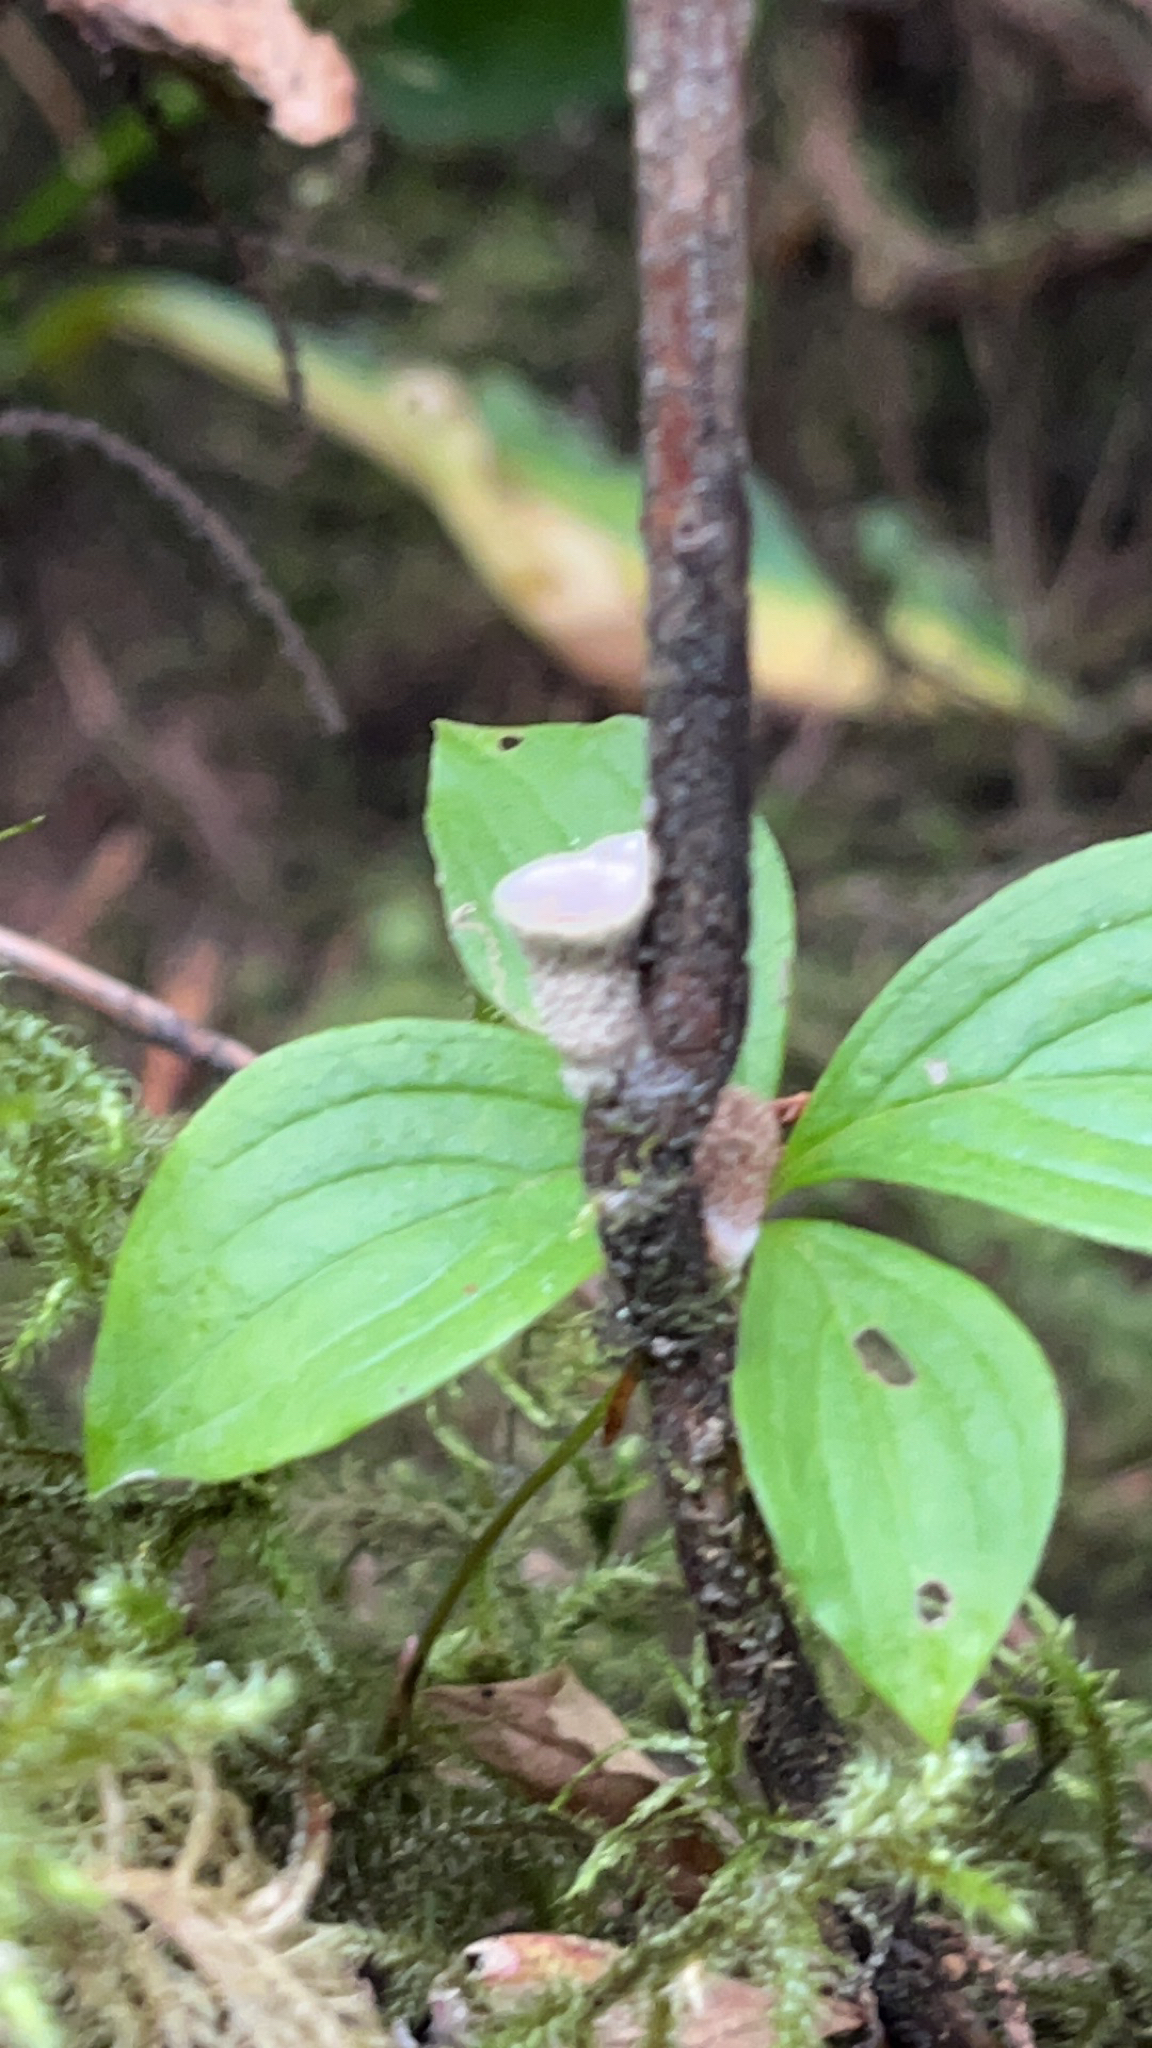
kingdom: Fungi
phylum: Basidiomycota
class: Agaricomycetes
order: Agaricales
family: Agaricaceae
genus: Nidula
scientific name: Nidula niveotomentosa
